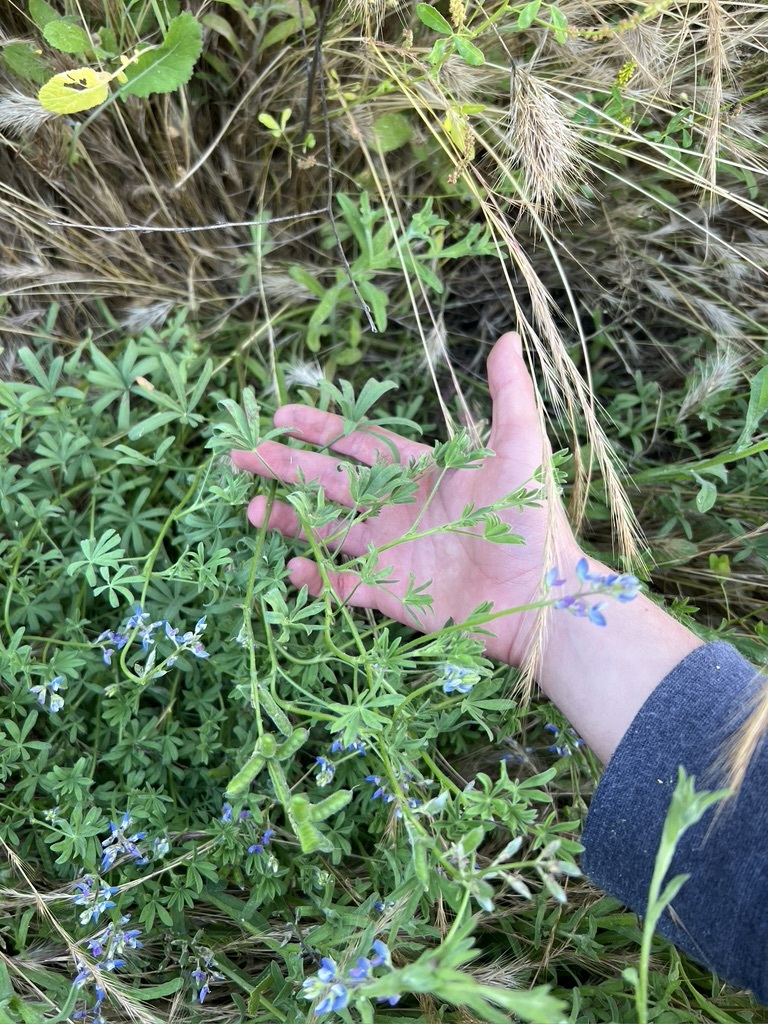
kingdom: Plantae
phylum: Tracheophyta
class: Magnoliopsida
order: Fabales
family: Fabaceae
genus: Lupinus
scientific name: Lupinus bicolor
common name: Miniature lupine
